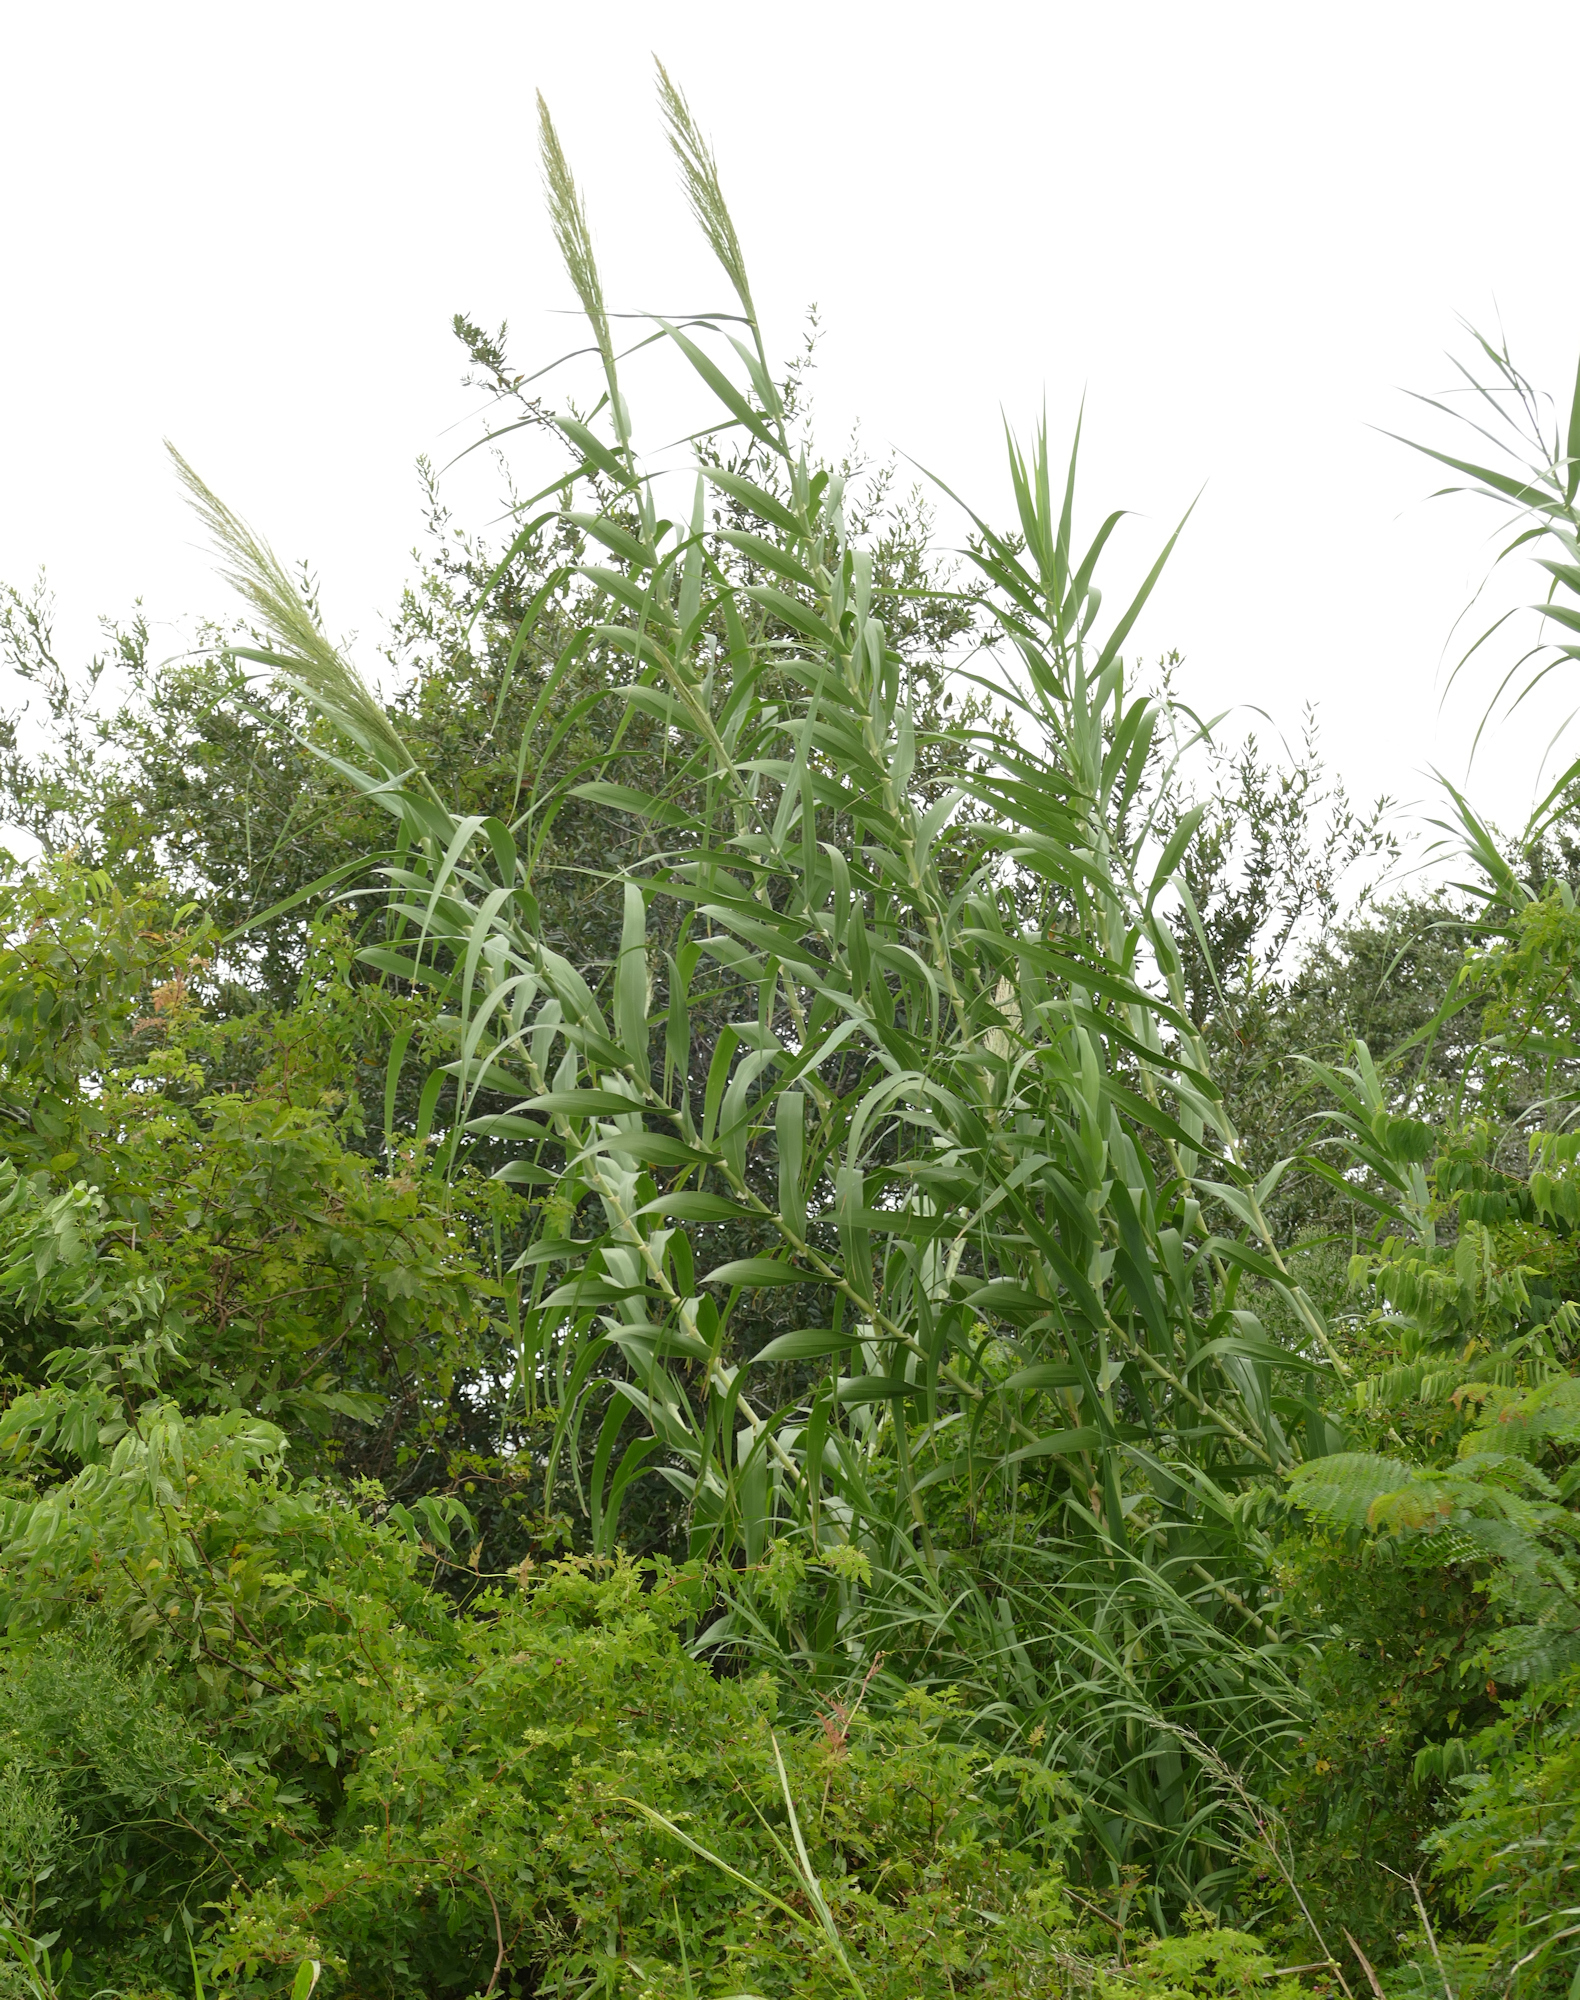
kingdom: Plantae
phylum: Tracheophyta
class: Liliopsida
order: Poales
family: Poaceae
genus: Arundo
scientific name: Arundo donax
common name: Giant reed
